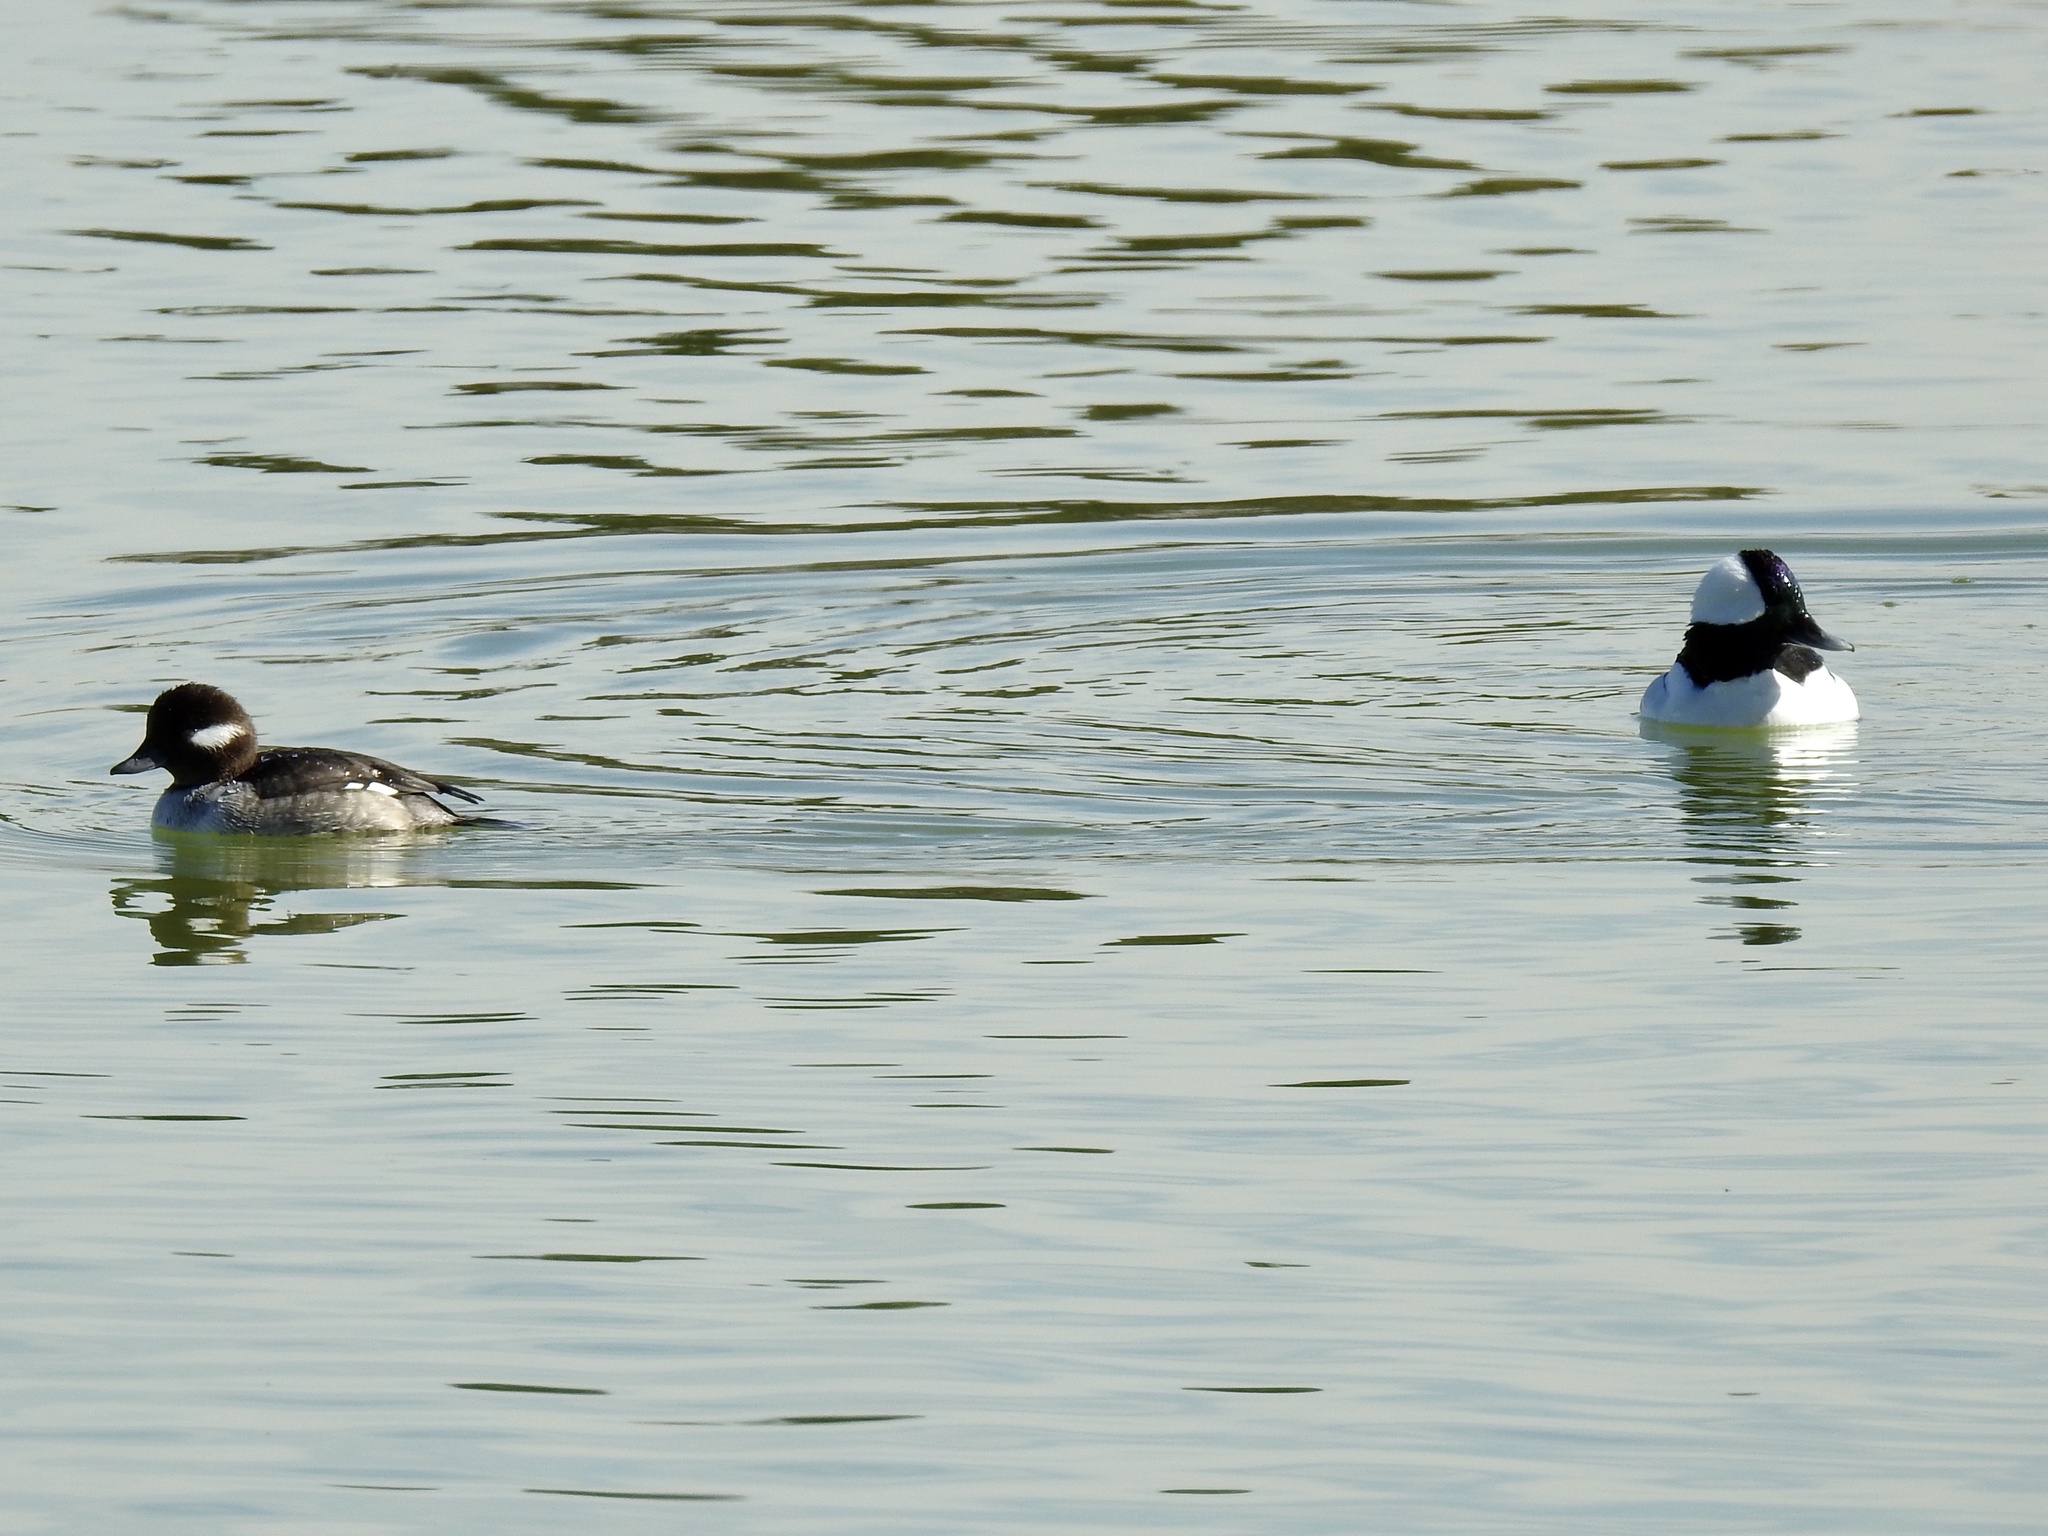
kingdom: Animalia
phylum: Chordata
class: Aves
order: Anseriformes
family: Anatidae
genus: Bucephala
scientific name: Bucephala albeola
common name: Bufflehead
